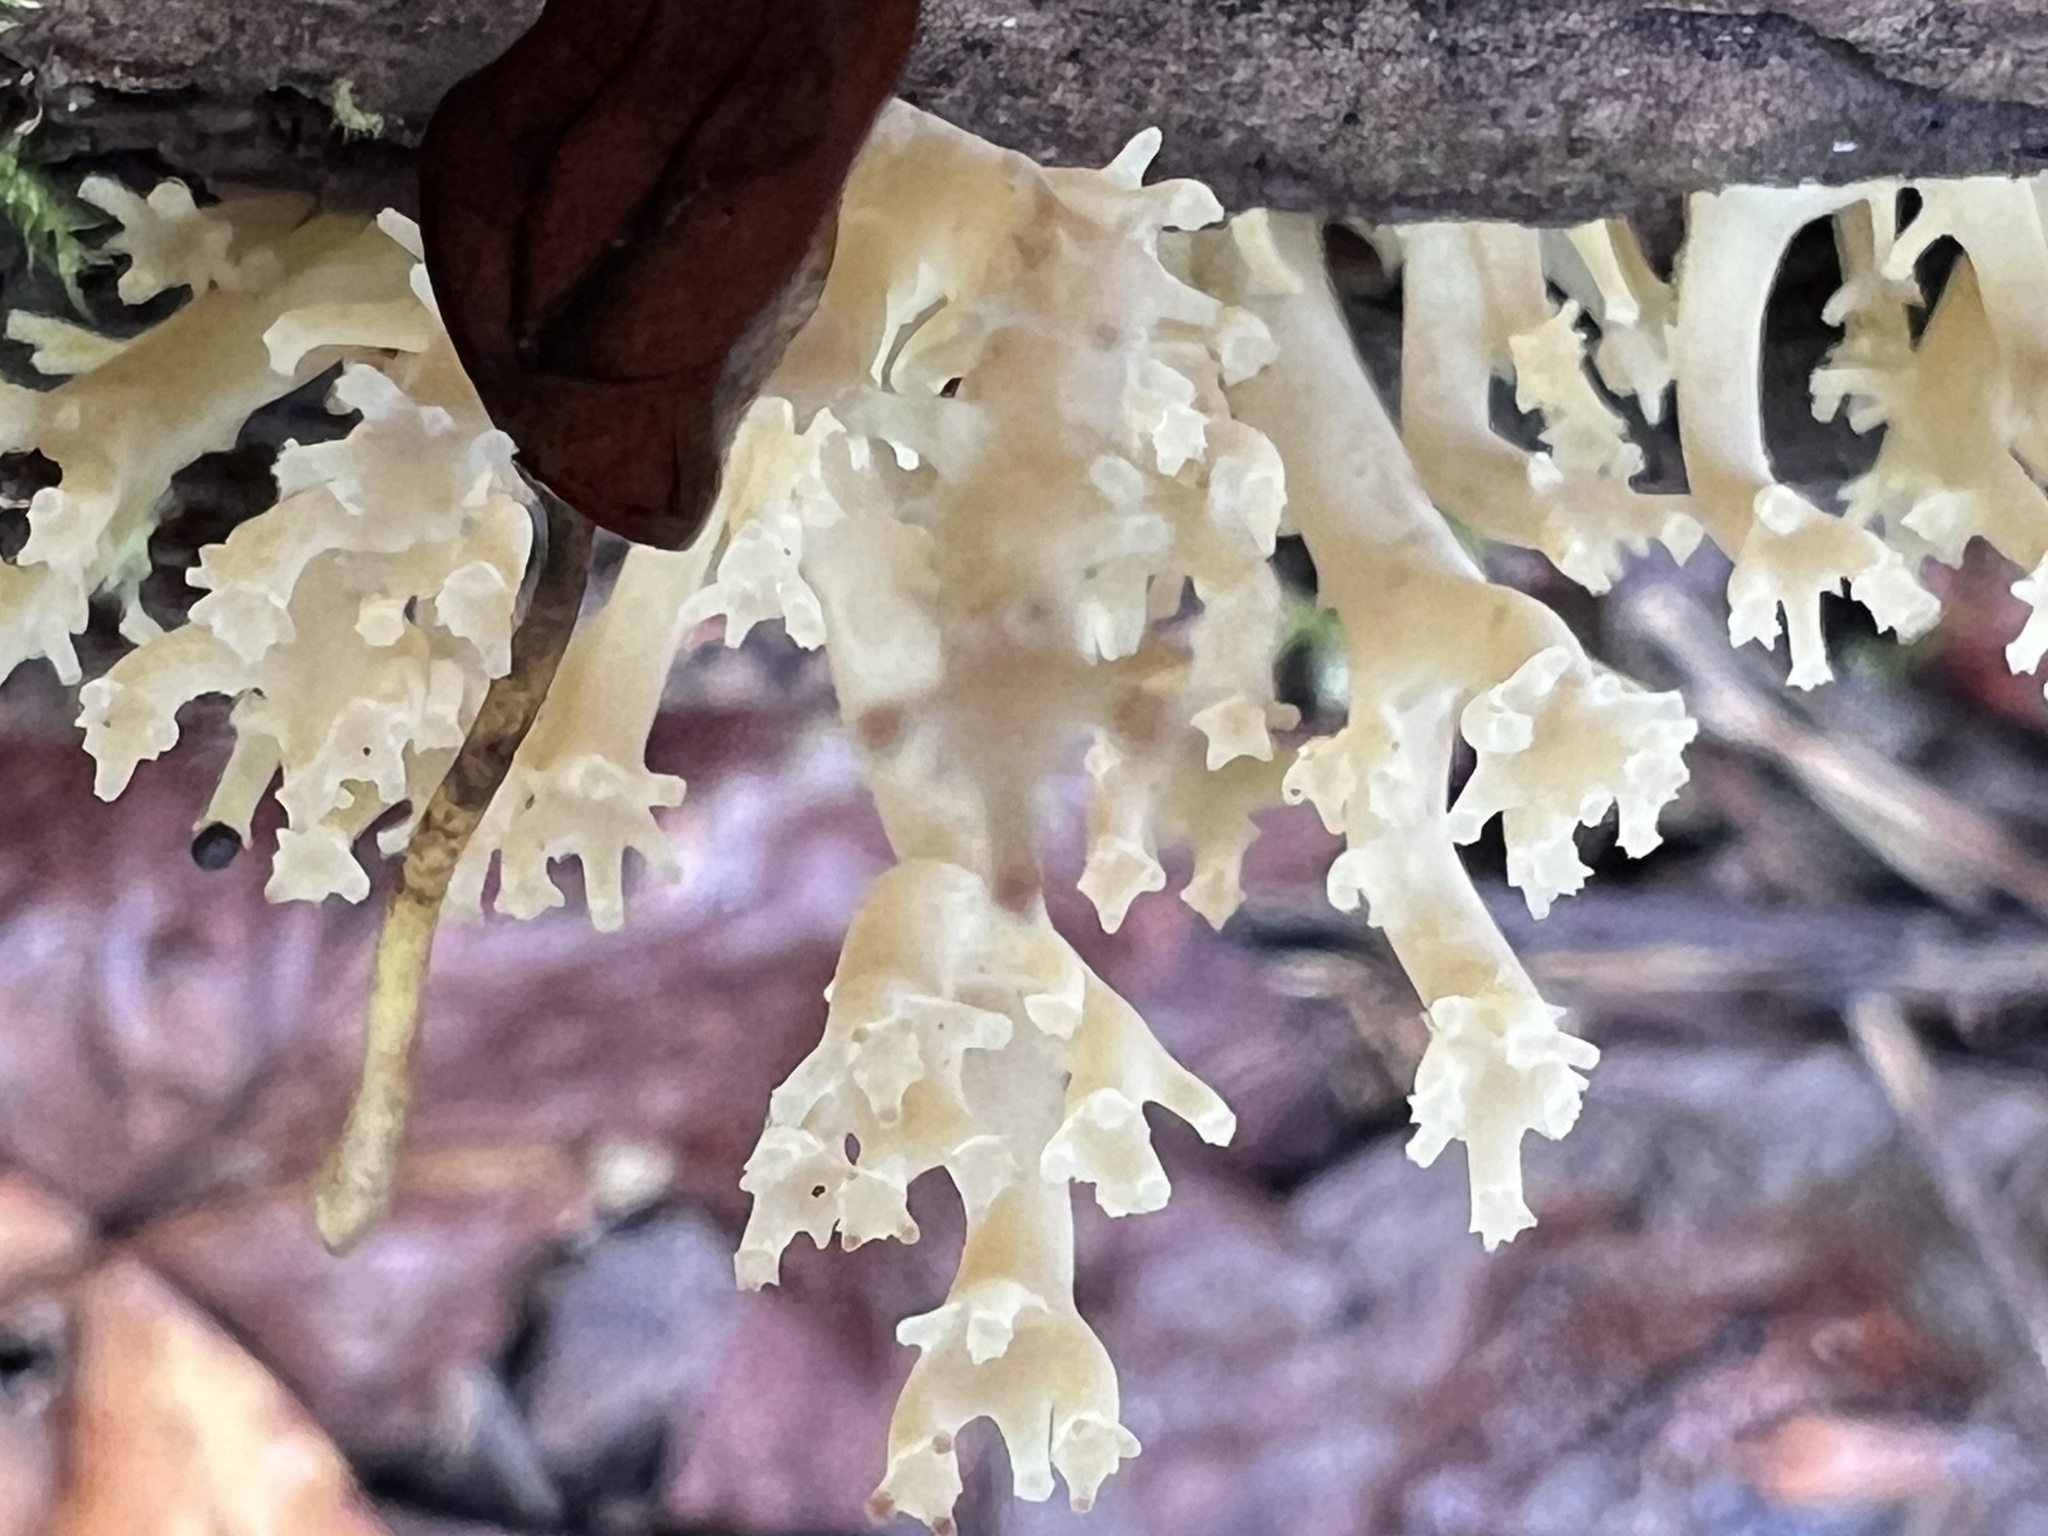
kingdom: Fungi
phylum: Basidiomycota
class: Agaricomycetes
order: Russulales
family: Auriscalpiaceae
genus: Artomyces
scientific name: Artomyces pyxidatus
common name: Crown-tipped coral fungus
